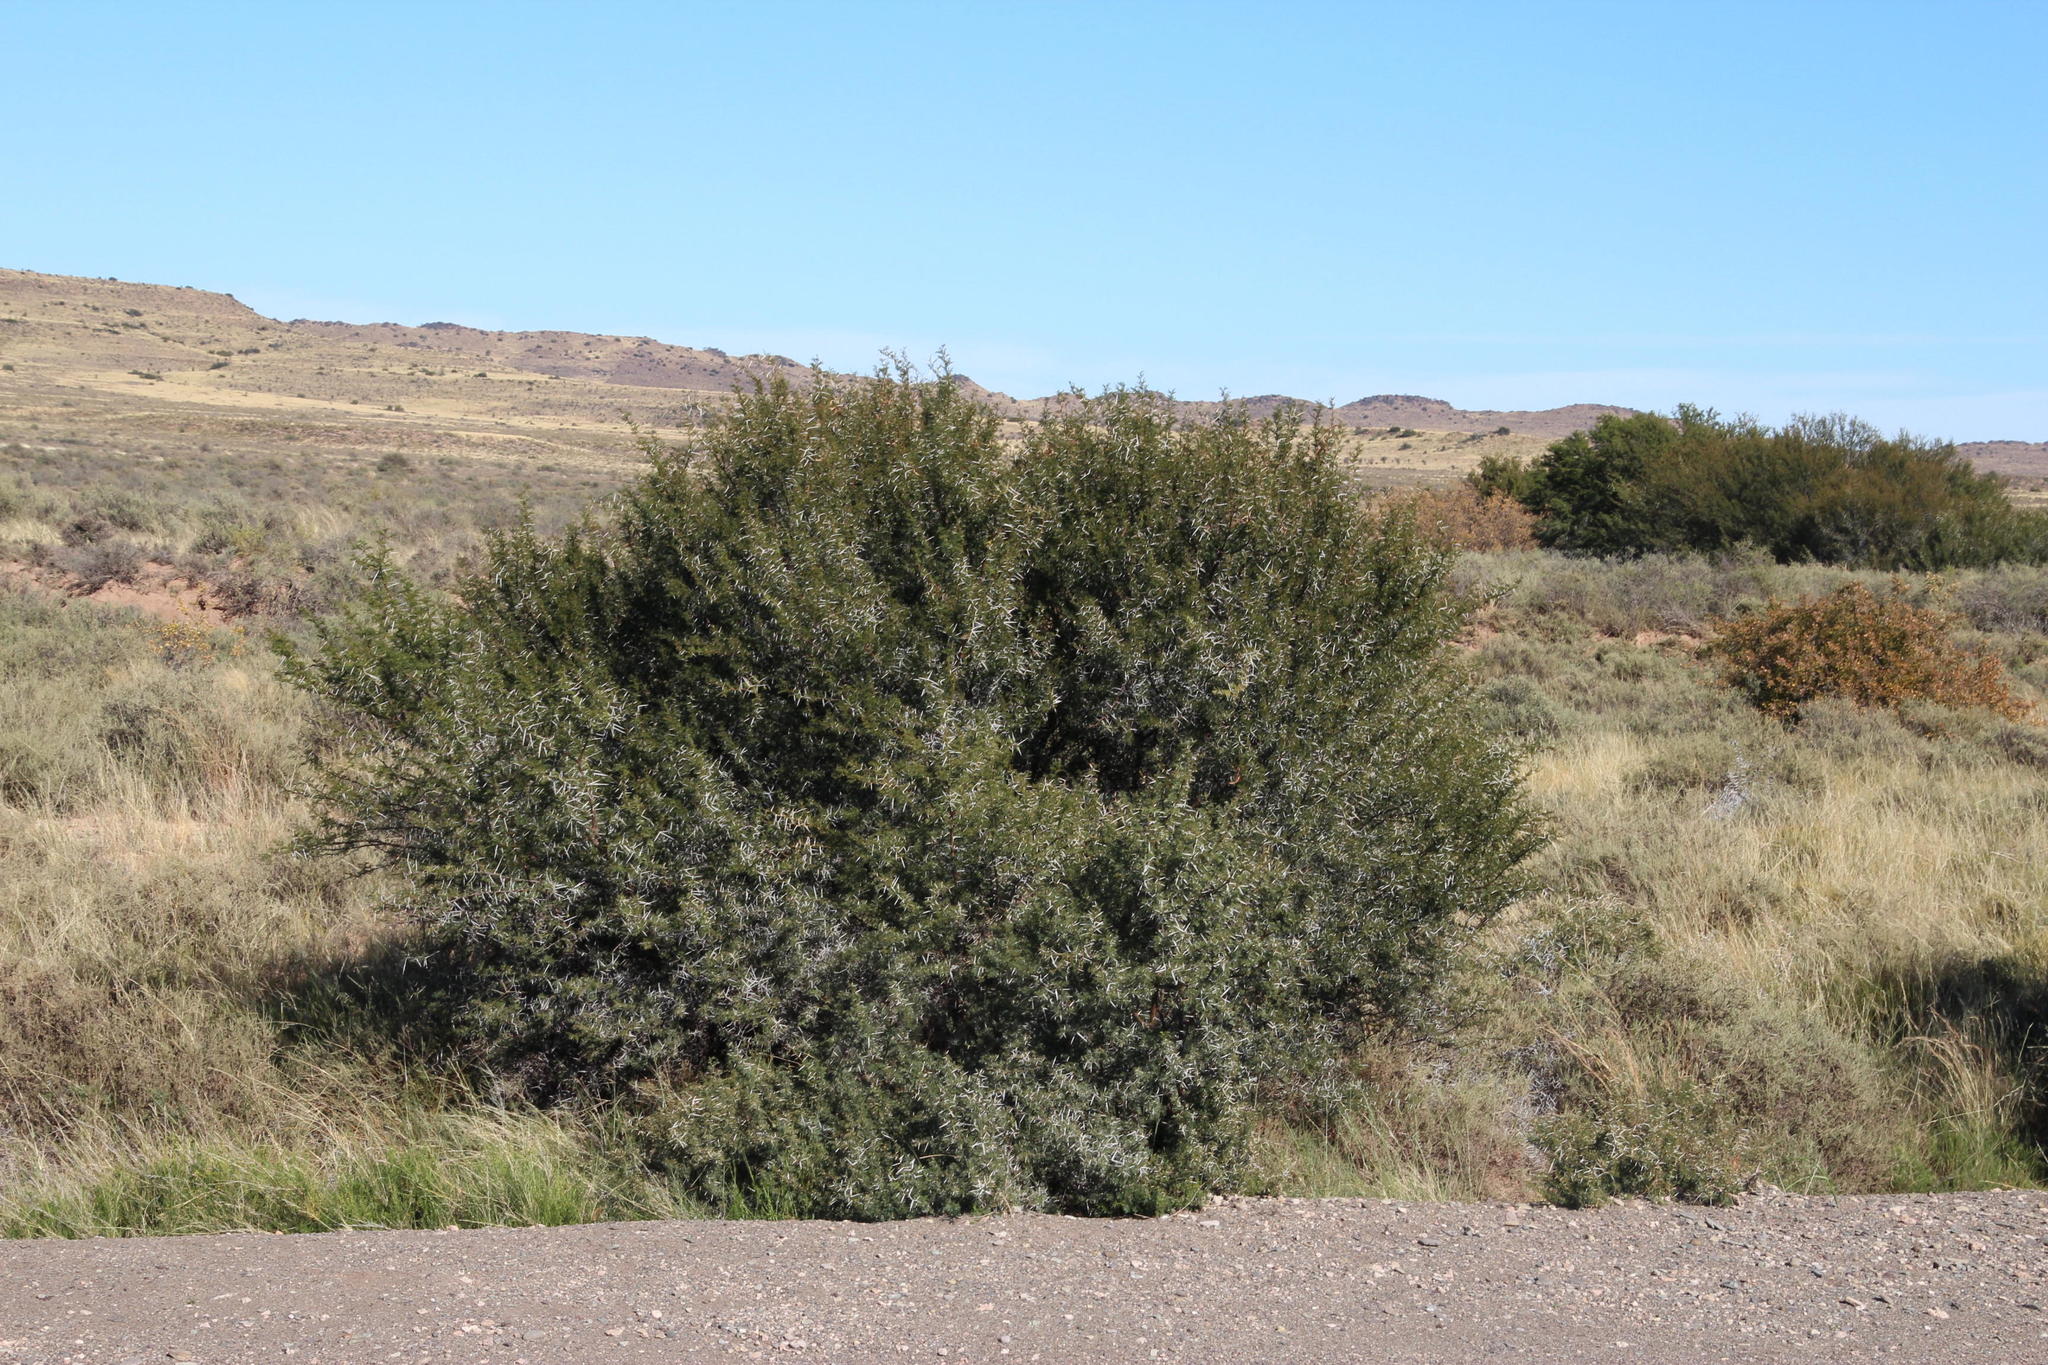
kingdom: Plantae
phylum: Tracheophyta
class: Magnoliopsida
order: Fabales
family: Fabaceae
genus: Vachellia
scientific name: Vachellia karroo
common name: Sweet thorn
